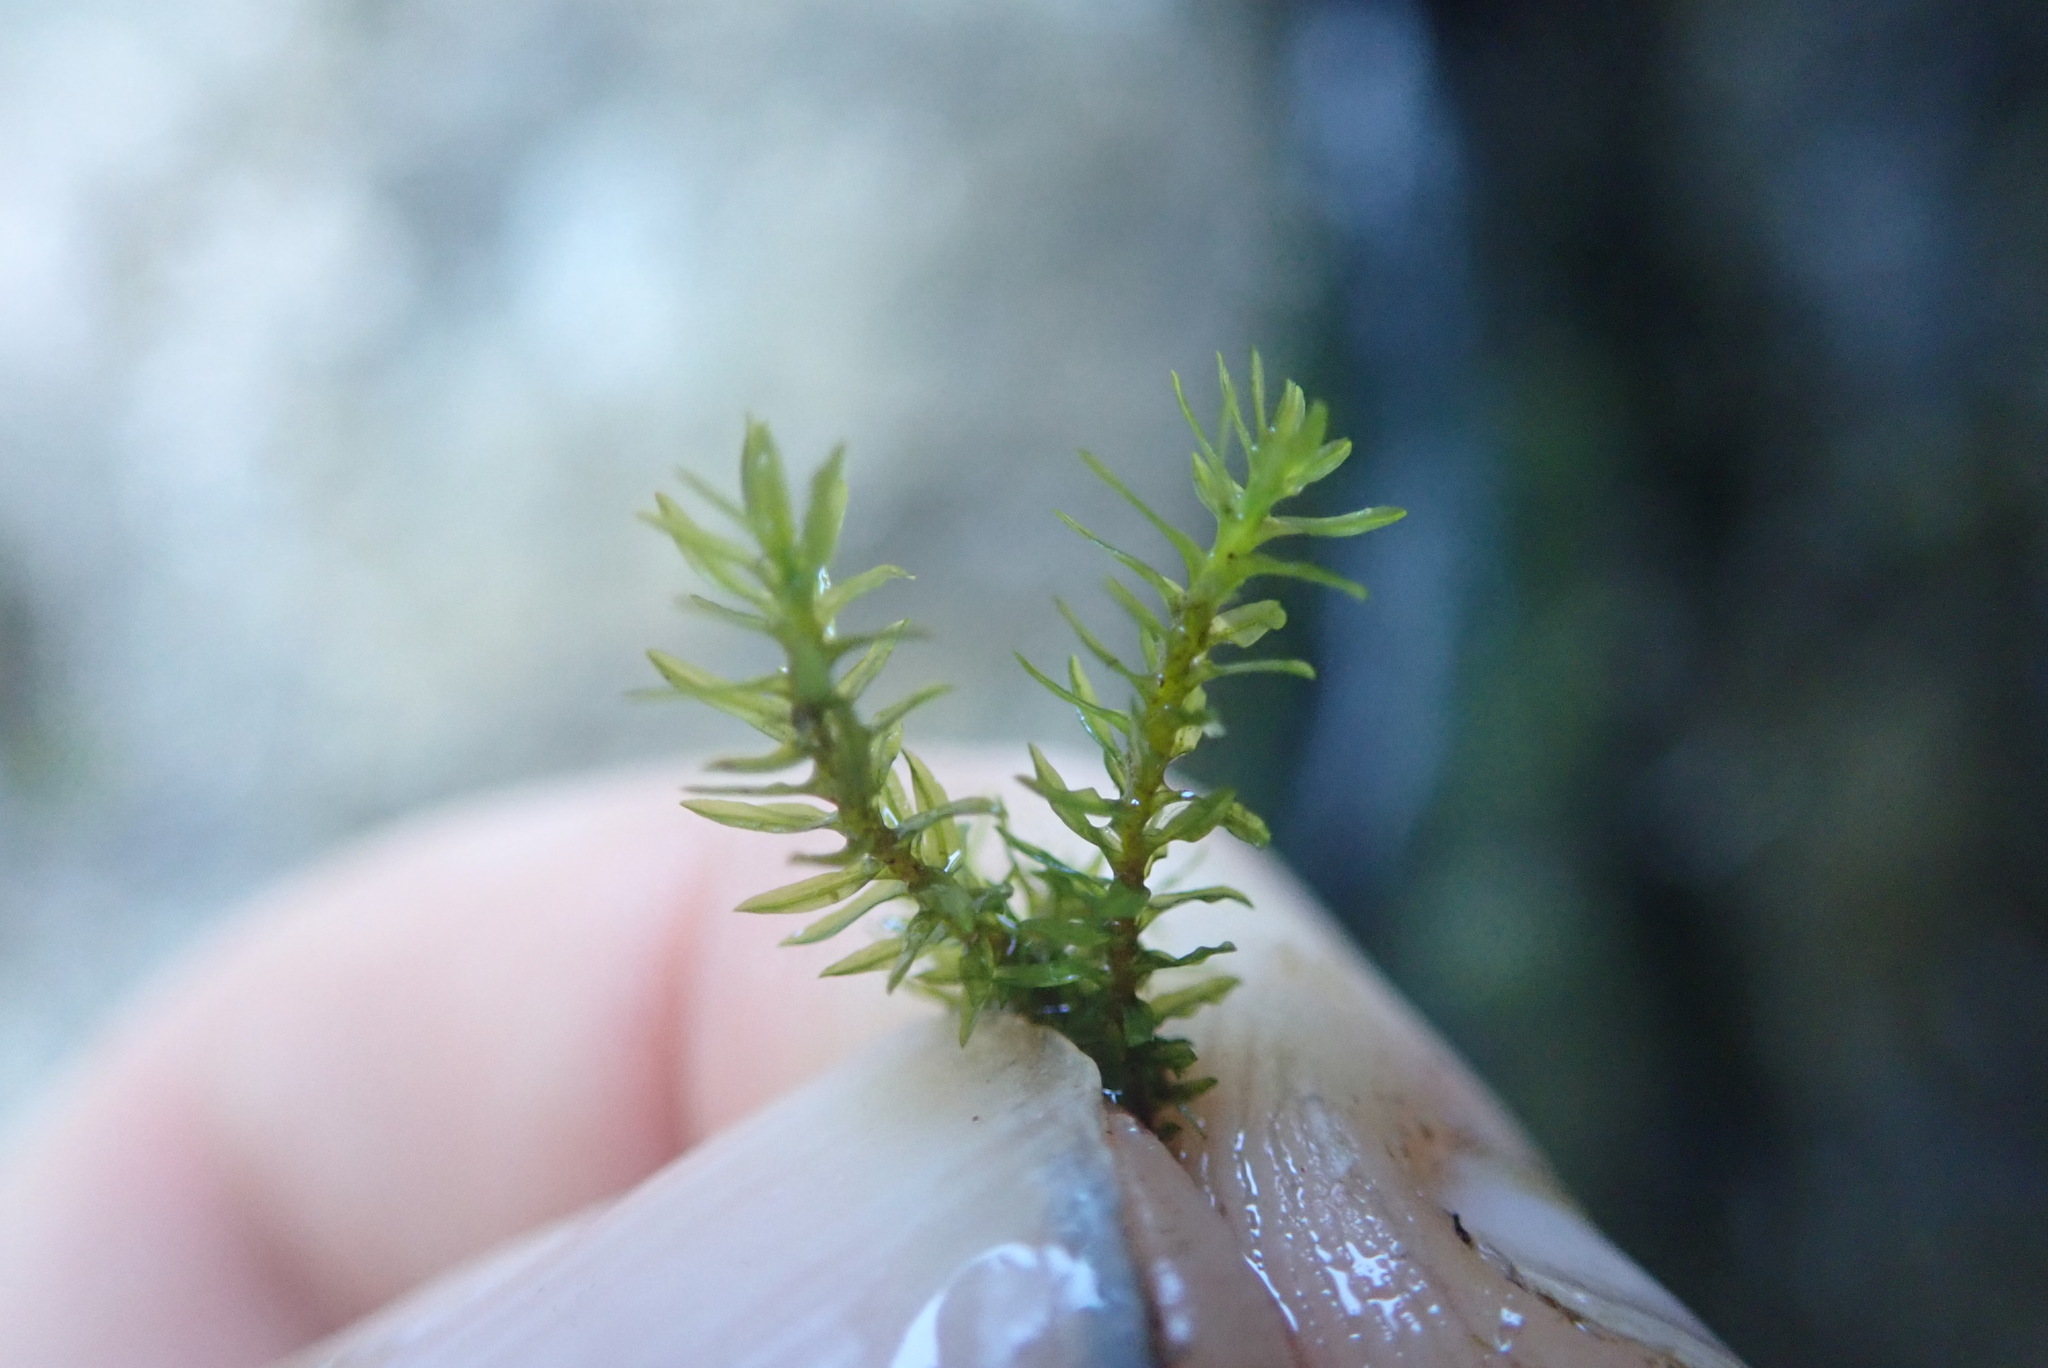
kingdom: Plantae
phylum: Bryophyta
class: Bryopsida
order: Dicranales
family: Aongstroemiaceae
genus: Dichodontium
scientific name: Dichodontium pellucidum
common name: Transparent fork moss
